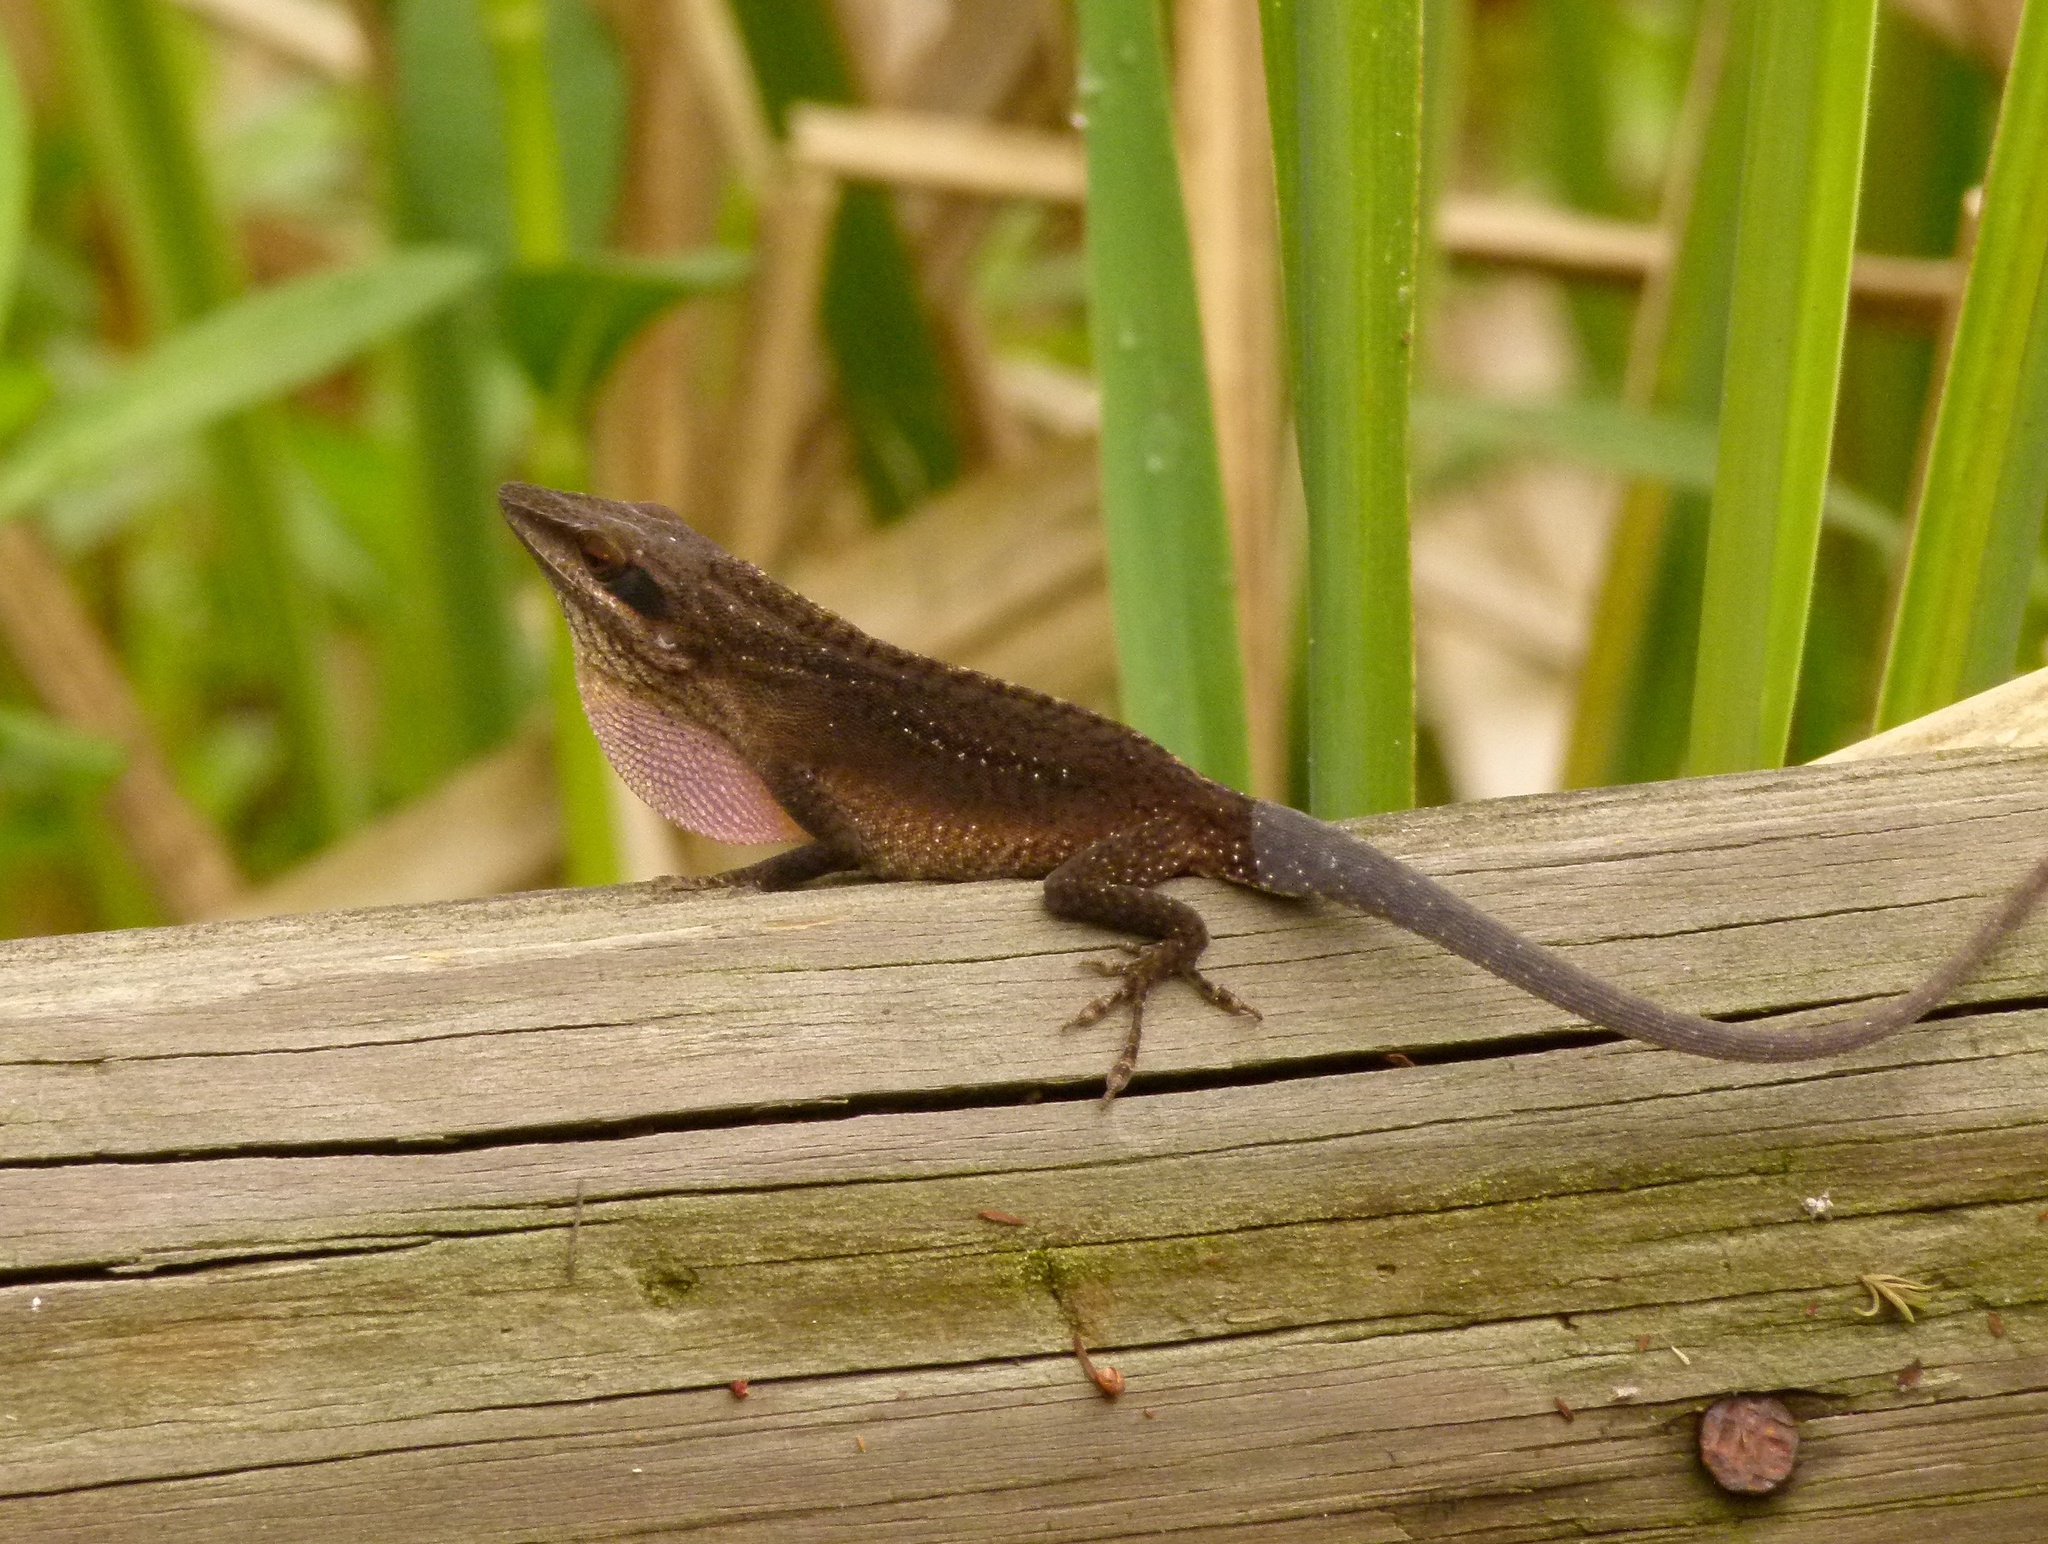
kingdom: Animalia
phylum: Chordata
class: Squamata
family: Dactyloidae
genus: Anolis
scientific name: Anolis carolinensis
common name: Green anole
